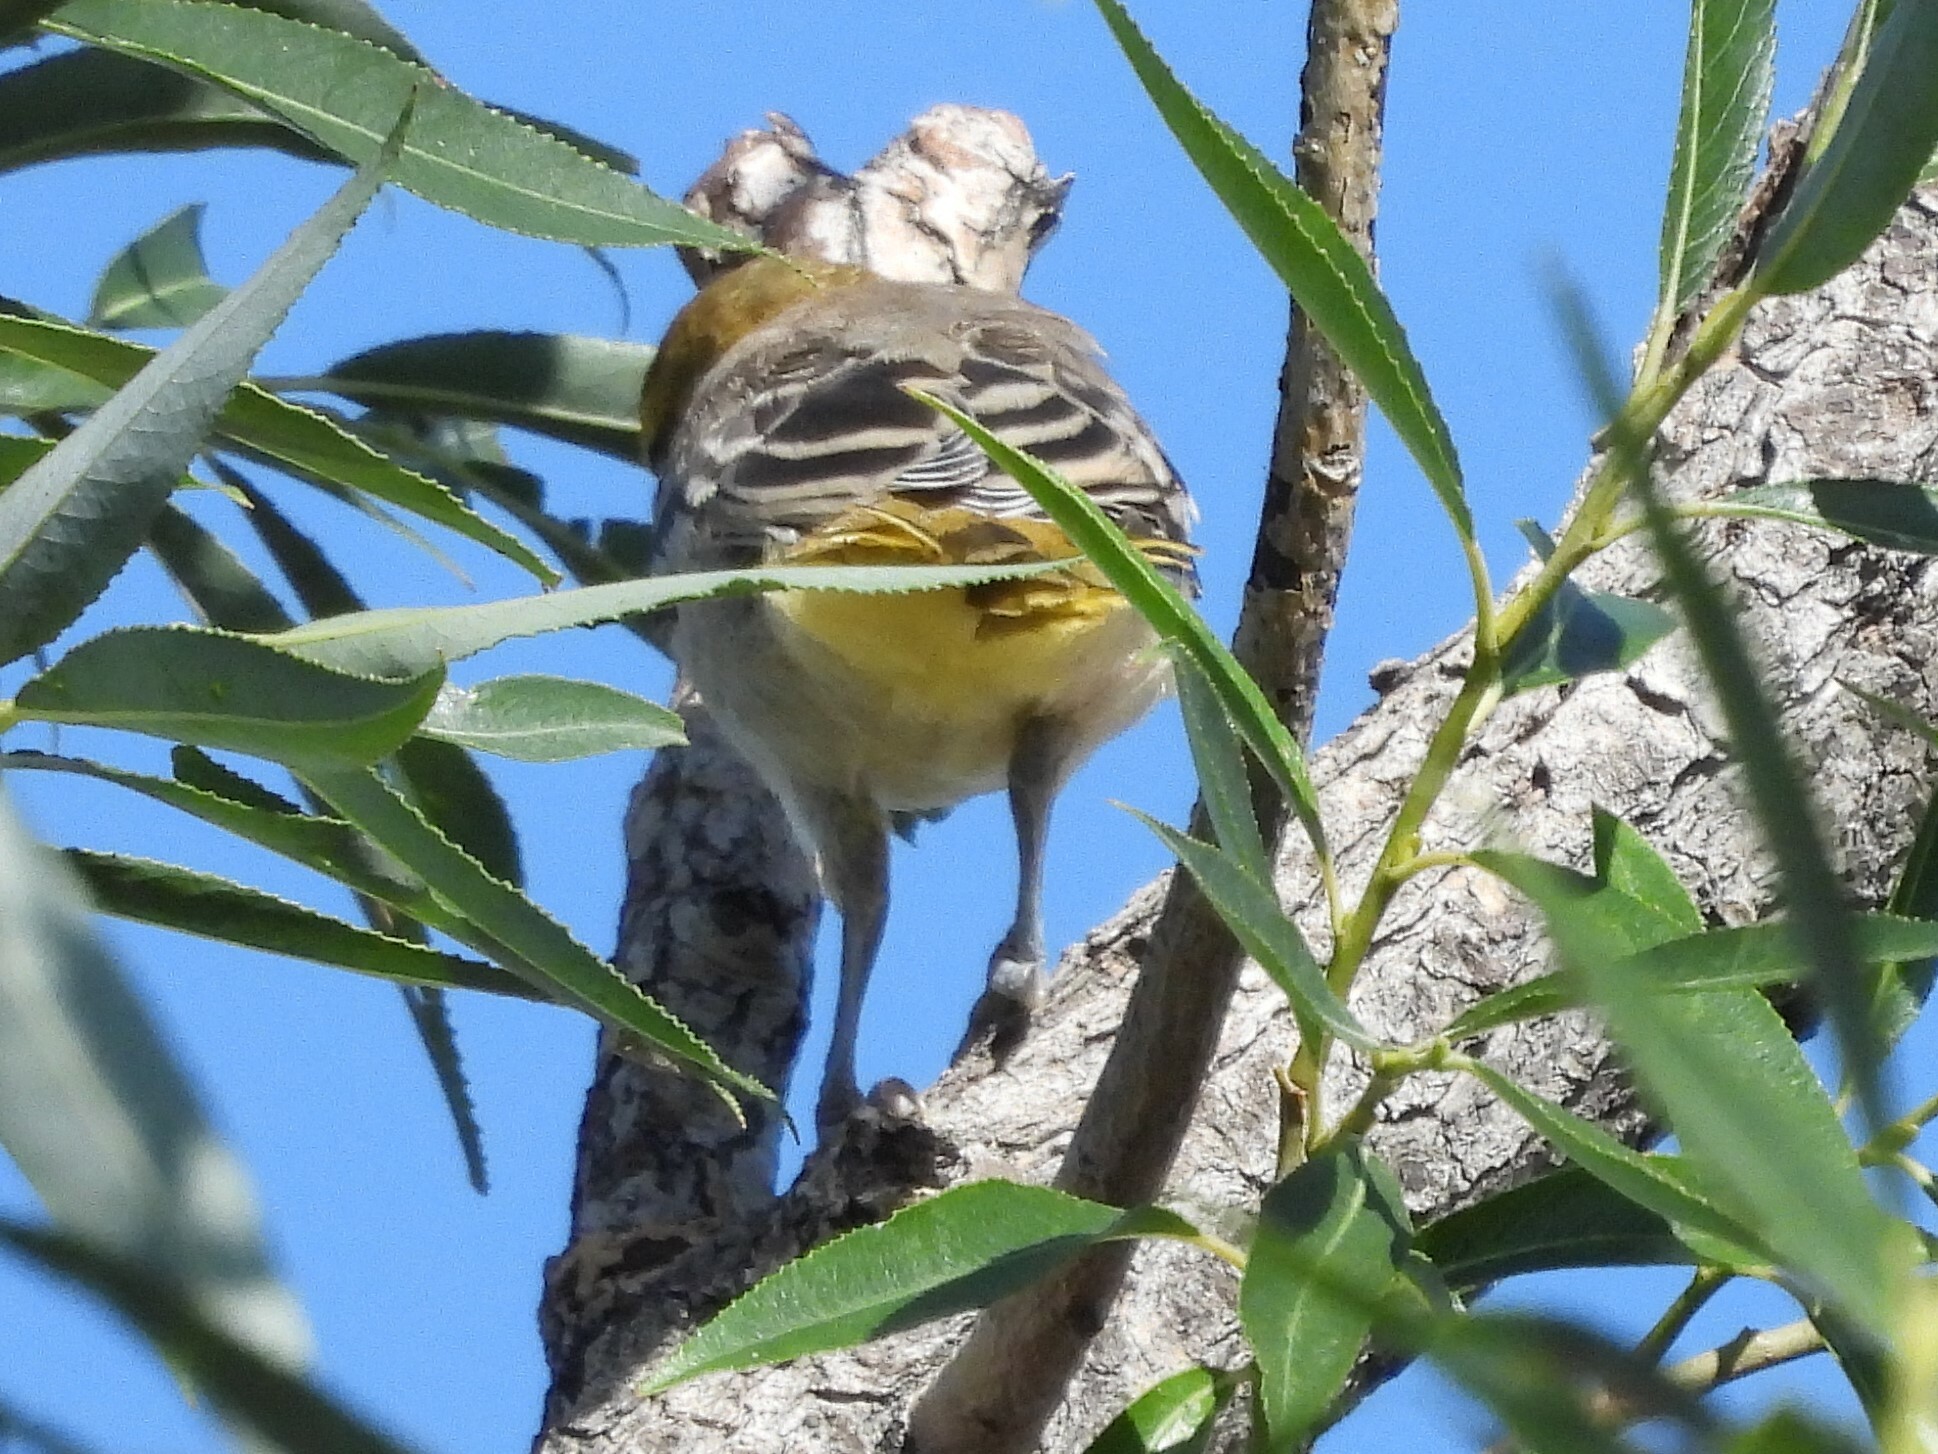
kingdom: Animalia
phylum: Chordata
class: Aves
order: Passeriformes
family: Icteridae
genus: Icterus
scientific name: Icterus bullockii
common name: Bullock's oriole
